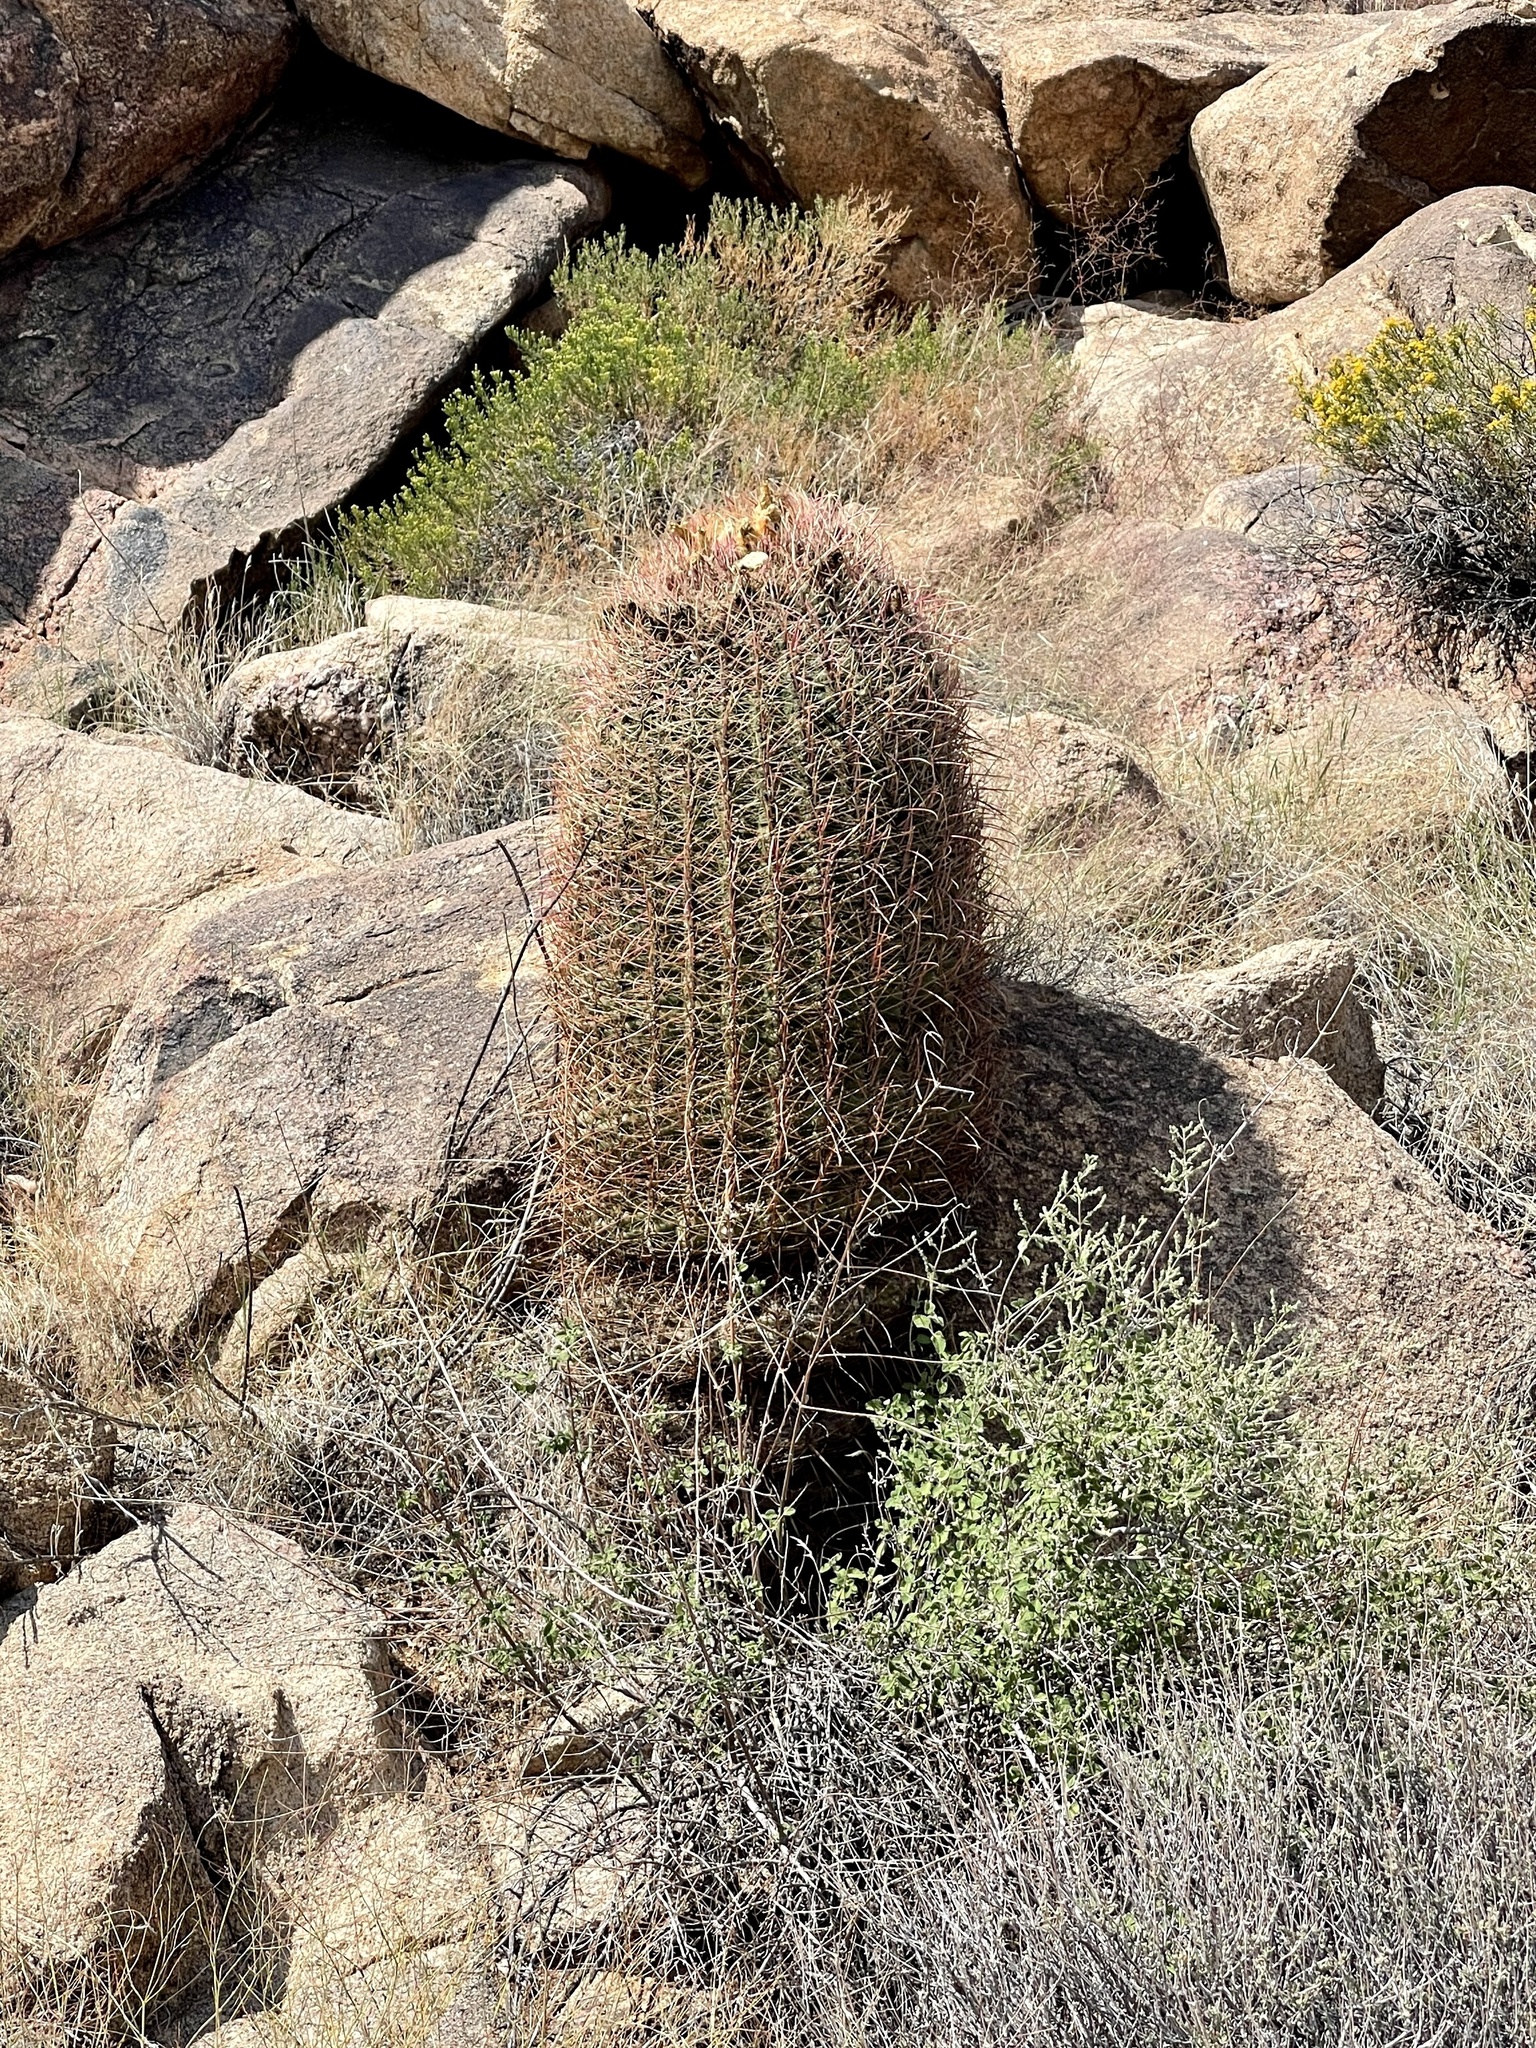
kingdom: Plantae
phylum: Tracheophyta
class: Magnoliopsida
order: Caryophyllales
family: Cactaceae
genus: Ferocactus
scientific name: Ferocactus cylindraceus
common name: California barrel cactus
